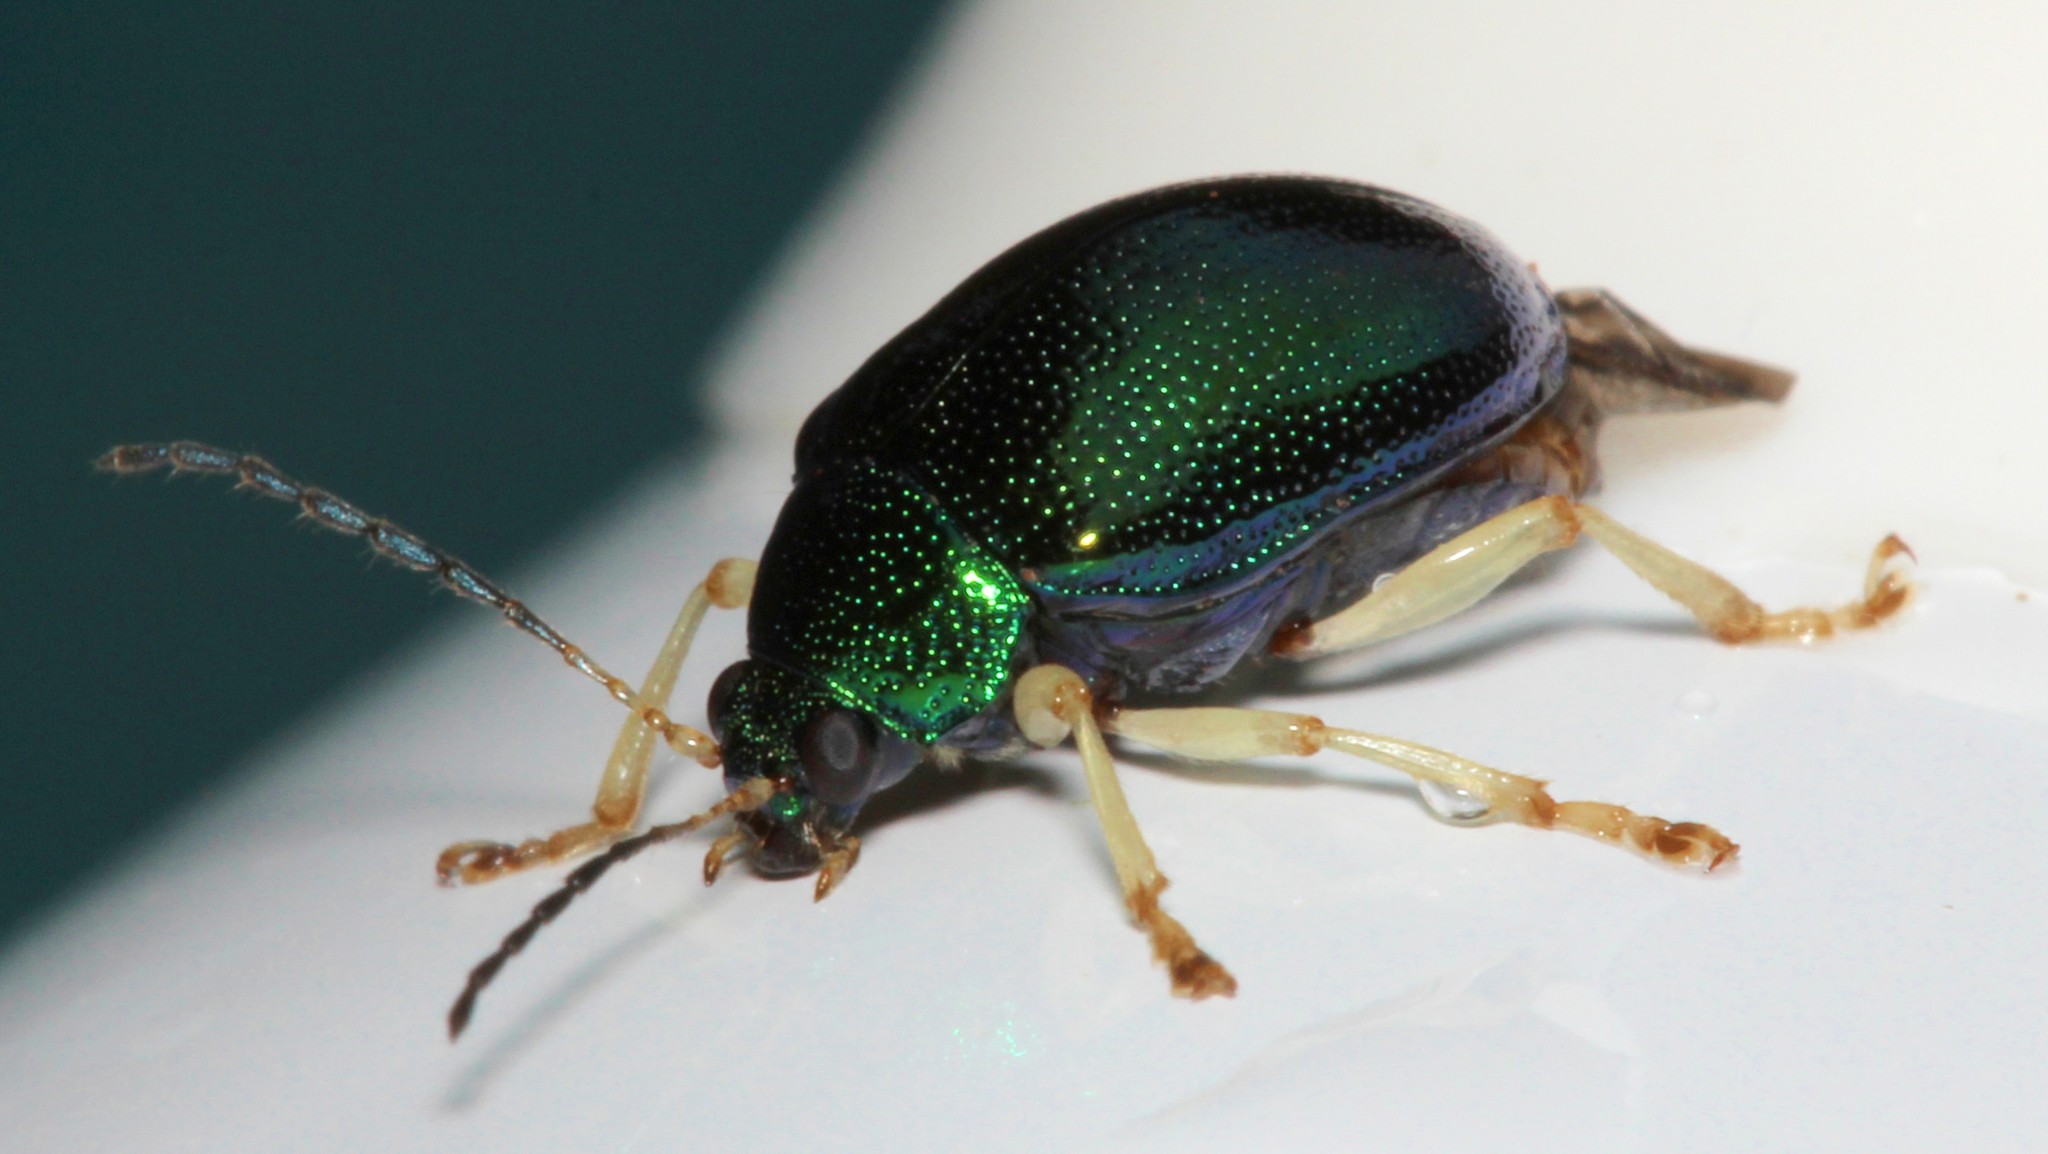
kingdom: Animalia
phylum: Arthropoda
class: Insecta
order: Coleoptera
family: Chrysomelidae
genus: Colaspis
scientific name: Colaspis
